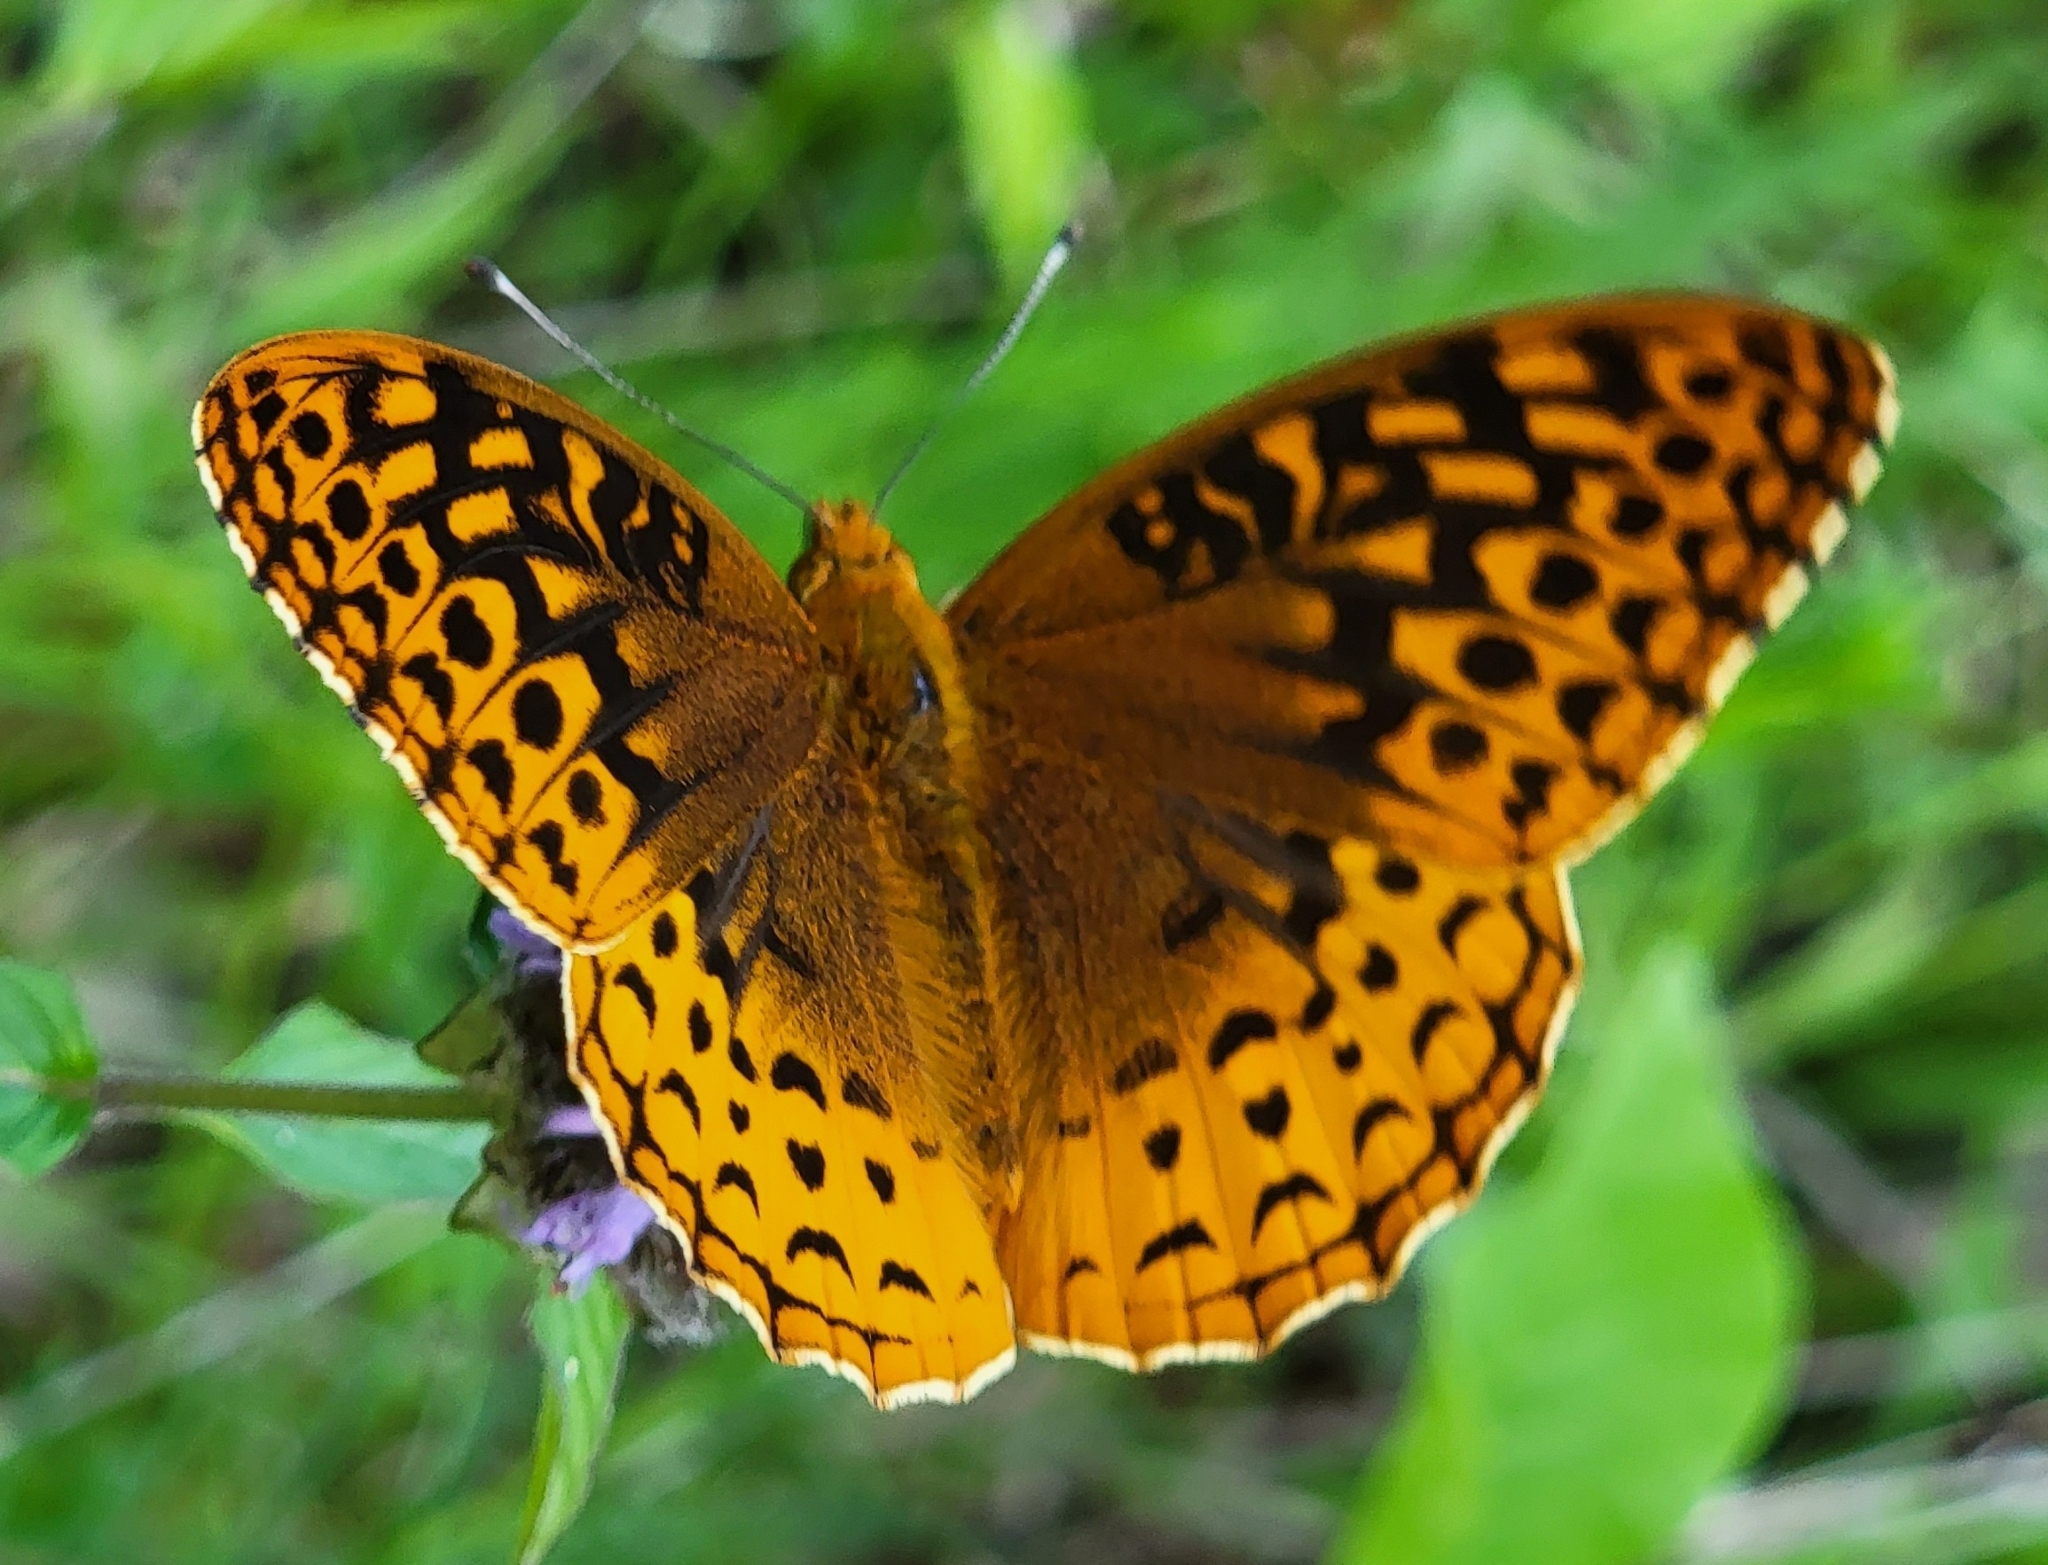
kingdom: Animalia
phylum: Arthropoda
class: Insecta
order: Lepidoptera
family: Nymphalidae
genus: Speyeria
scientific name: Speyeria cybele
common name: Great spangled fritillary
